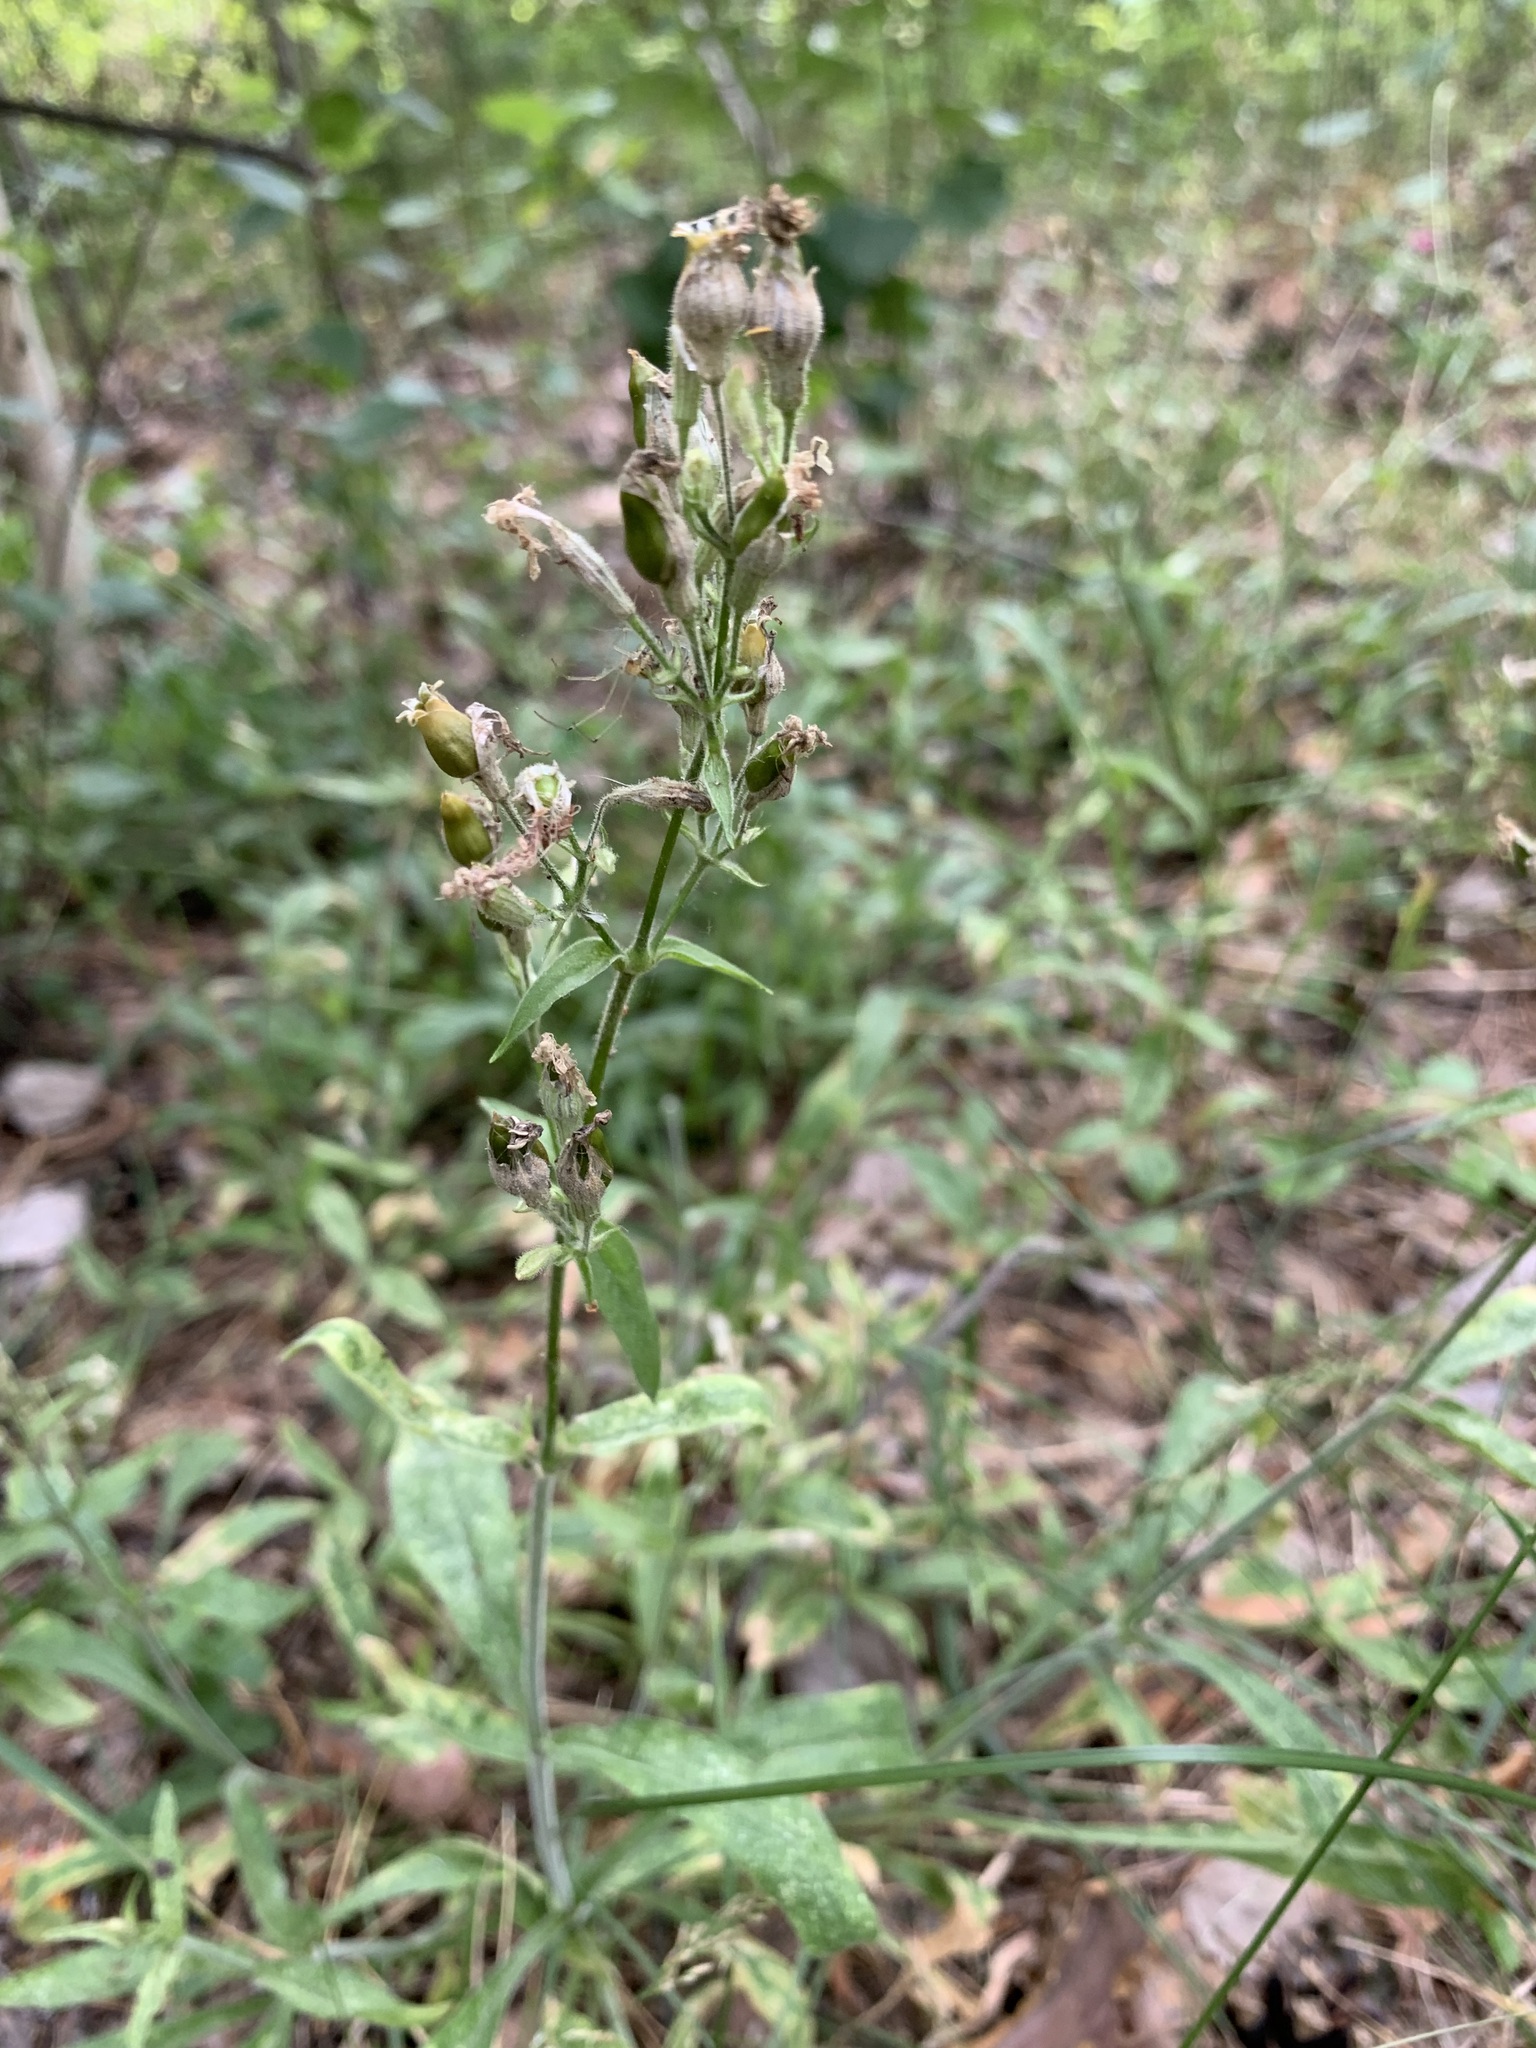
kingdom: Plantae
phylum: Tracheophyta
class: Magnoliopsida
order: Caryophyllales
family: Caryophyllaceae
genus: Silene
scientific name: Silene nutans
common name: Nottingham catchfly
